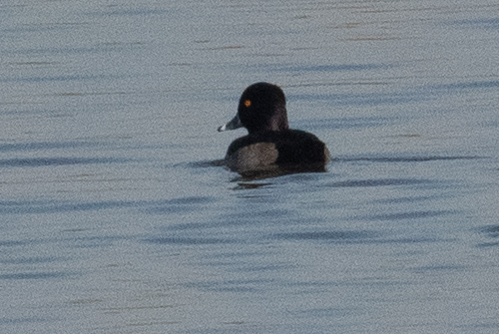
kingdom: Animalia
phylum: Chordata
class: Aves
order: Anseriformes
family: Anatidae
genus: Aythya
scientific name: Aythya collaris
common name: Ring-necked duck
